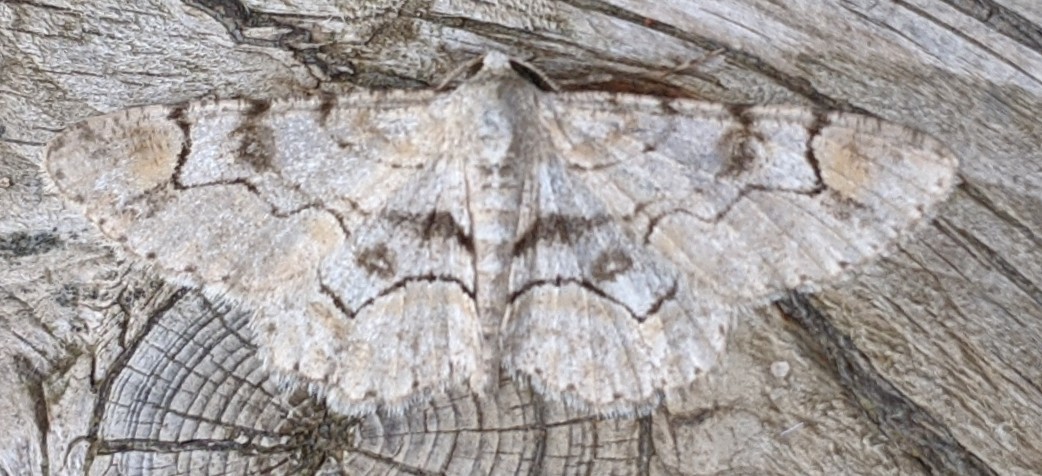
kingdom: Animalia
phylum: Arthropoda
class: Insecta
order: Lepidoptera
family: Geometridae
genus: Iridopsis
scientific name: Iridopsis larvaria
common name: Bent-line gray
